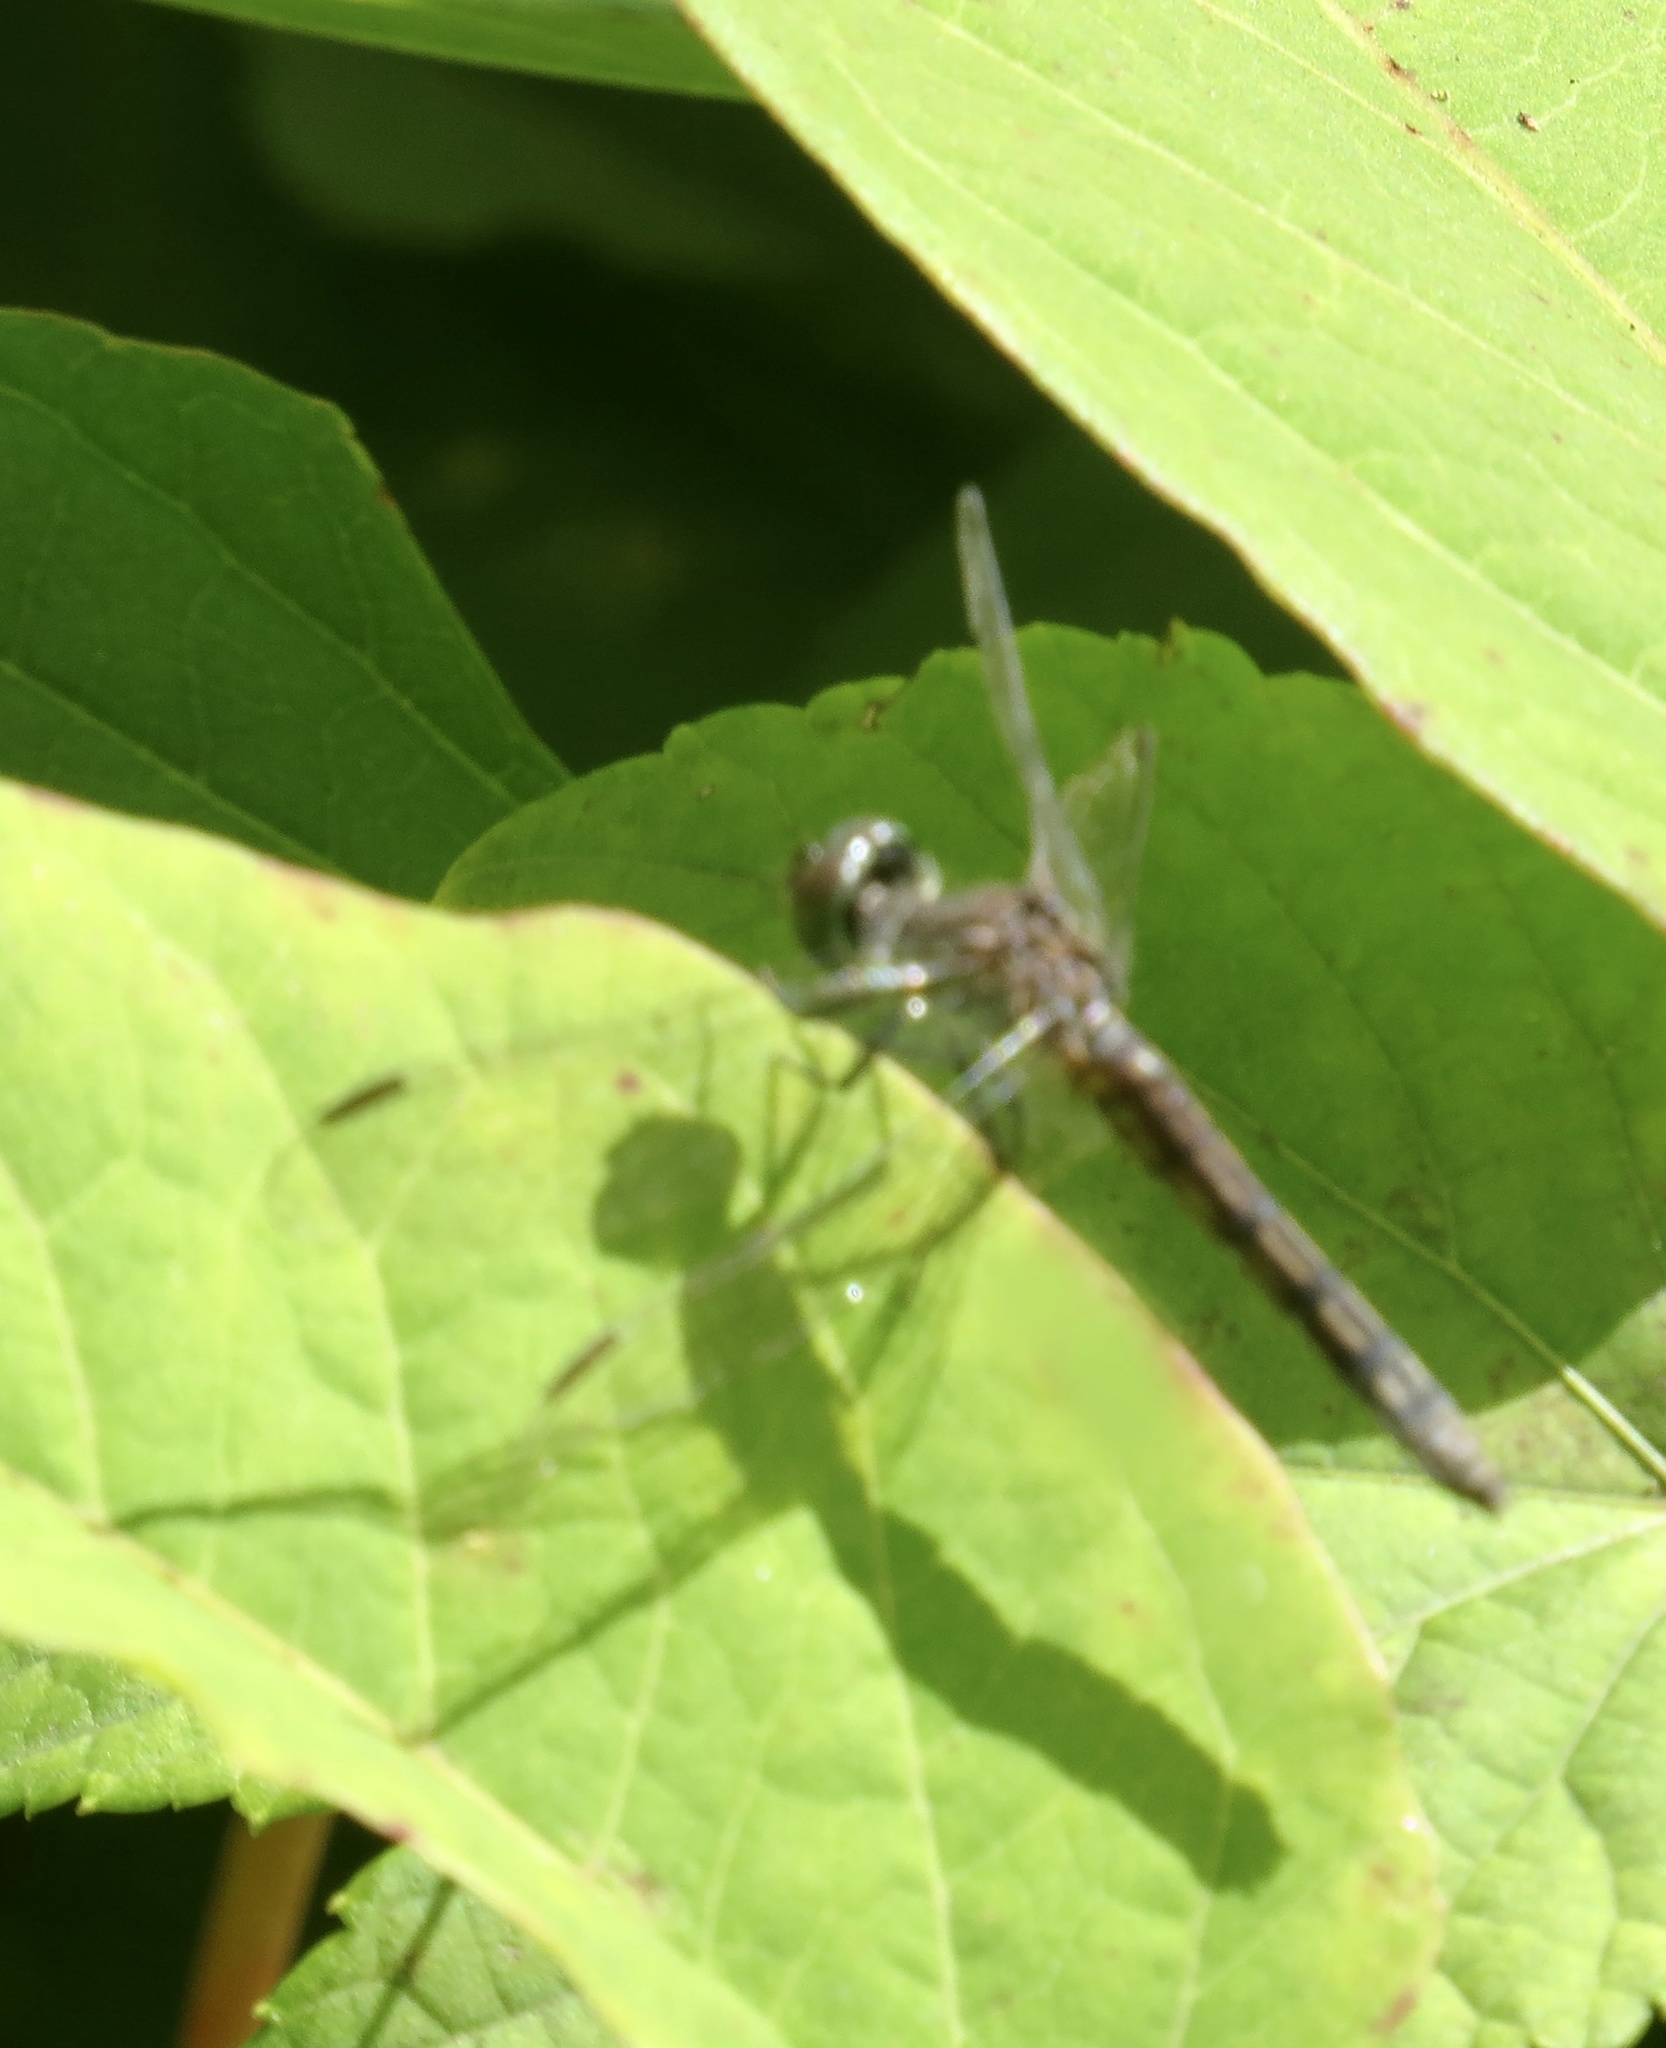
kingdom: Animalia
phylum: Arthropoda
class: Insecta
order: Odonata
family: Libellulidae
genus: Pachydiplax
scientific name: Pachydiplax longipennis
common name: Blue dasher
